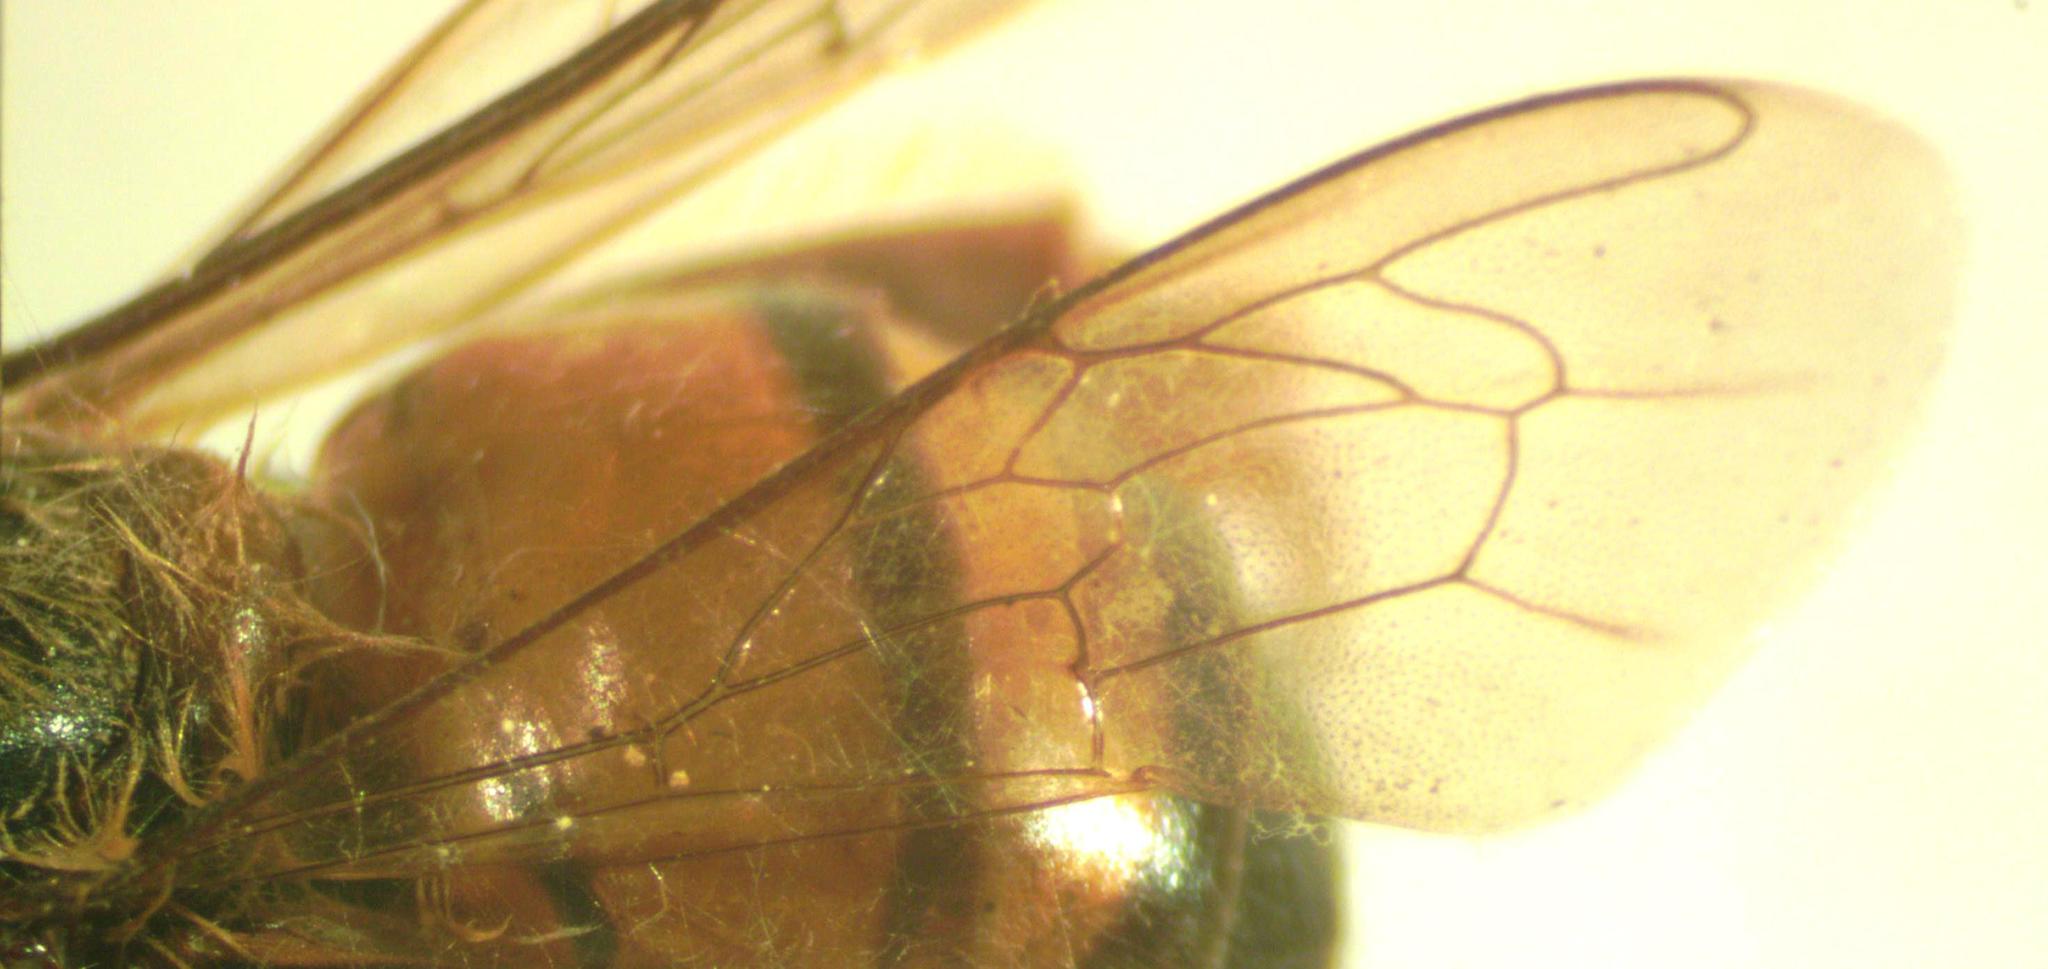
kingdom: Animalia
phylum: Arthropoda
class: Insecta
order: Hymenoptera
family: Apidae
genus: Apis
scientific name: Apis mellifera
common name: Honey bee
